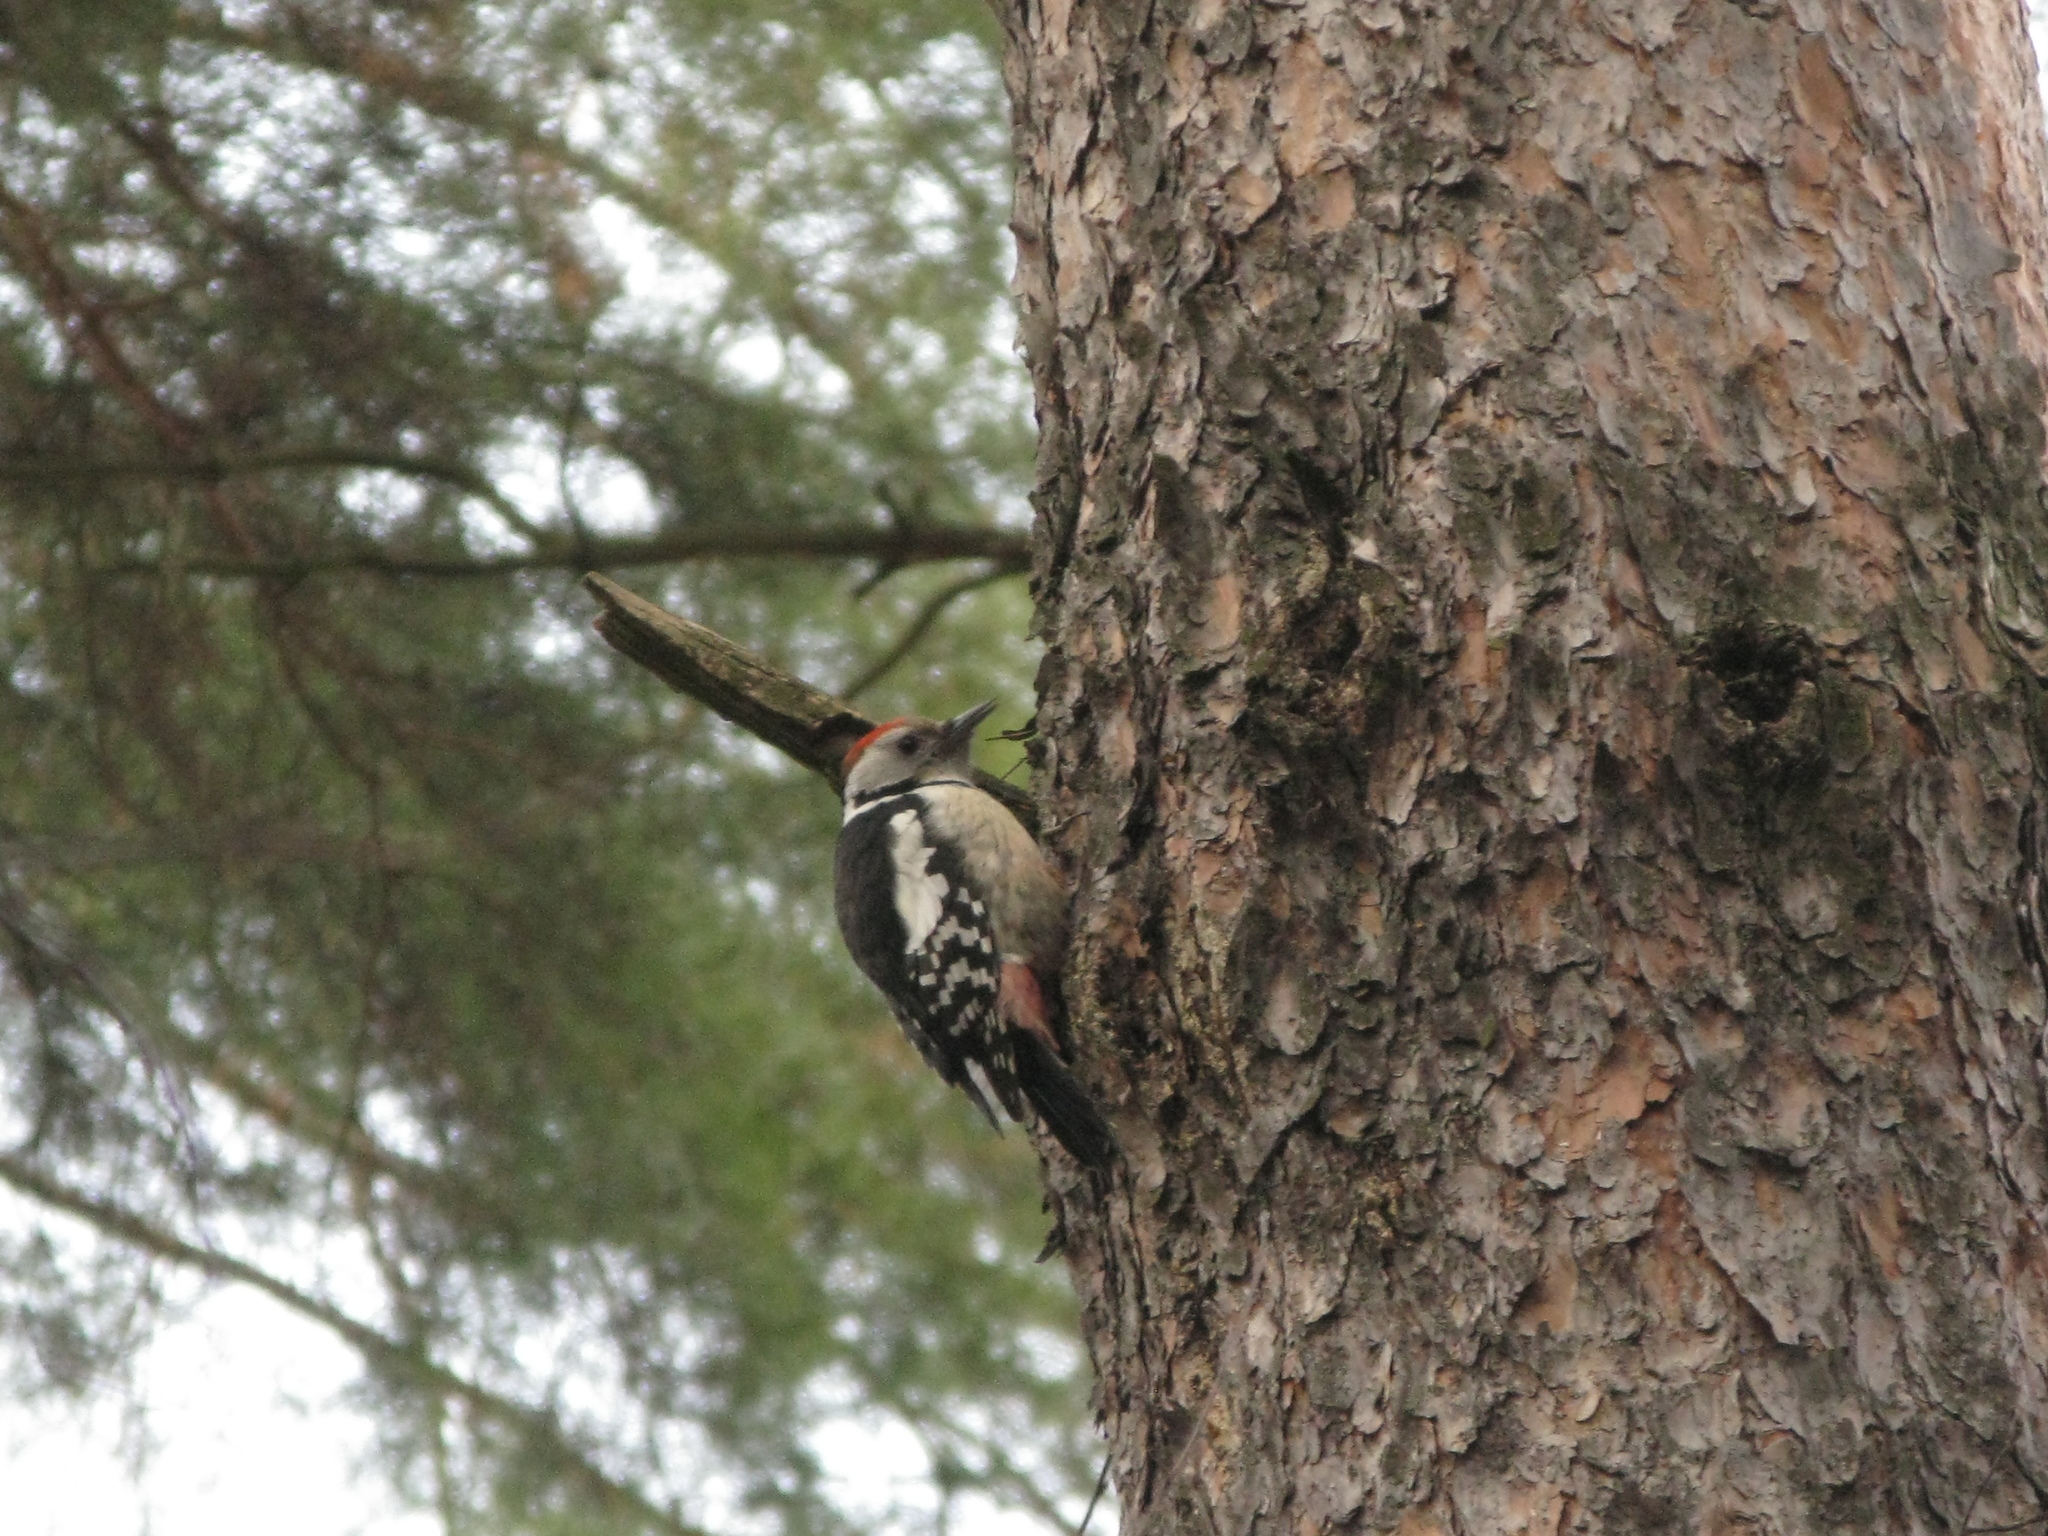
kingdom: Animalia
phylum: Chordata
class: Aves
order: Piciformes
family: Picidae
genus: Dendrocoptes
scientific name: Dendrocoptes medius
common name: Middle spotted woodpecker
